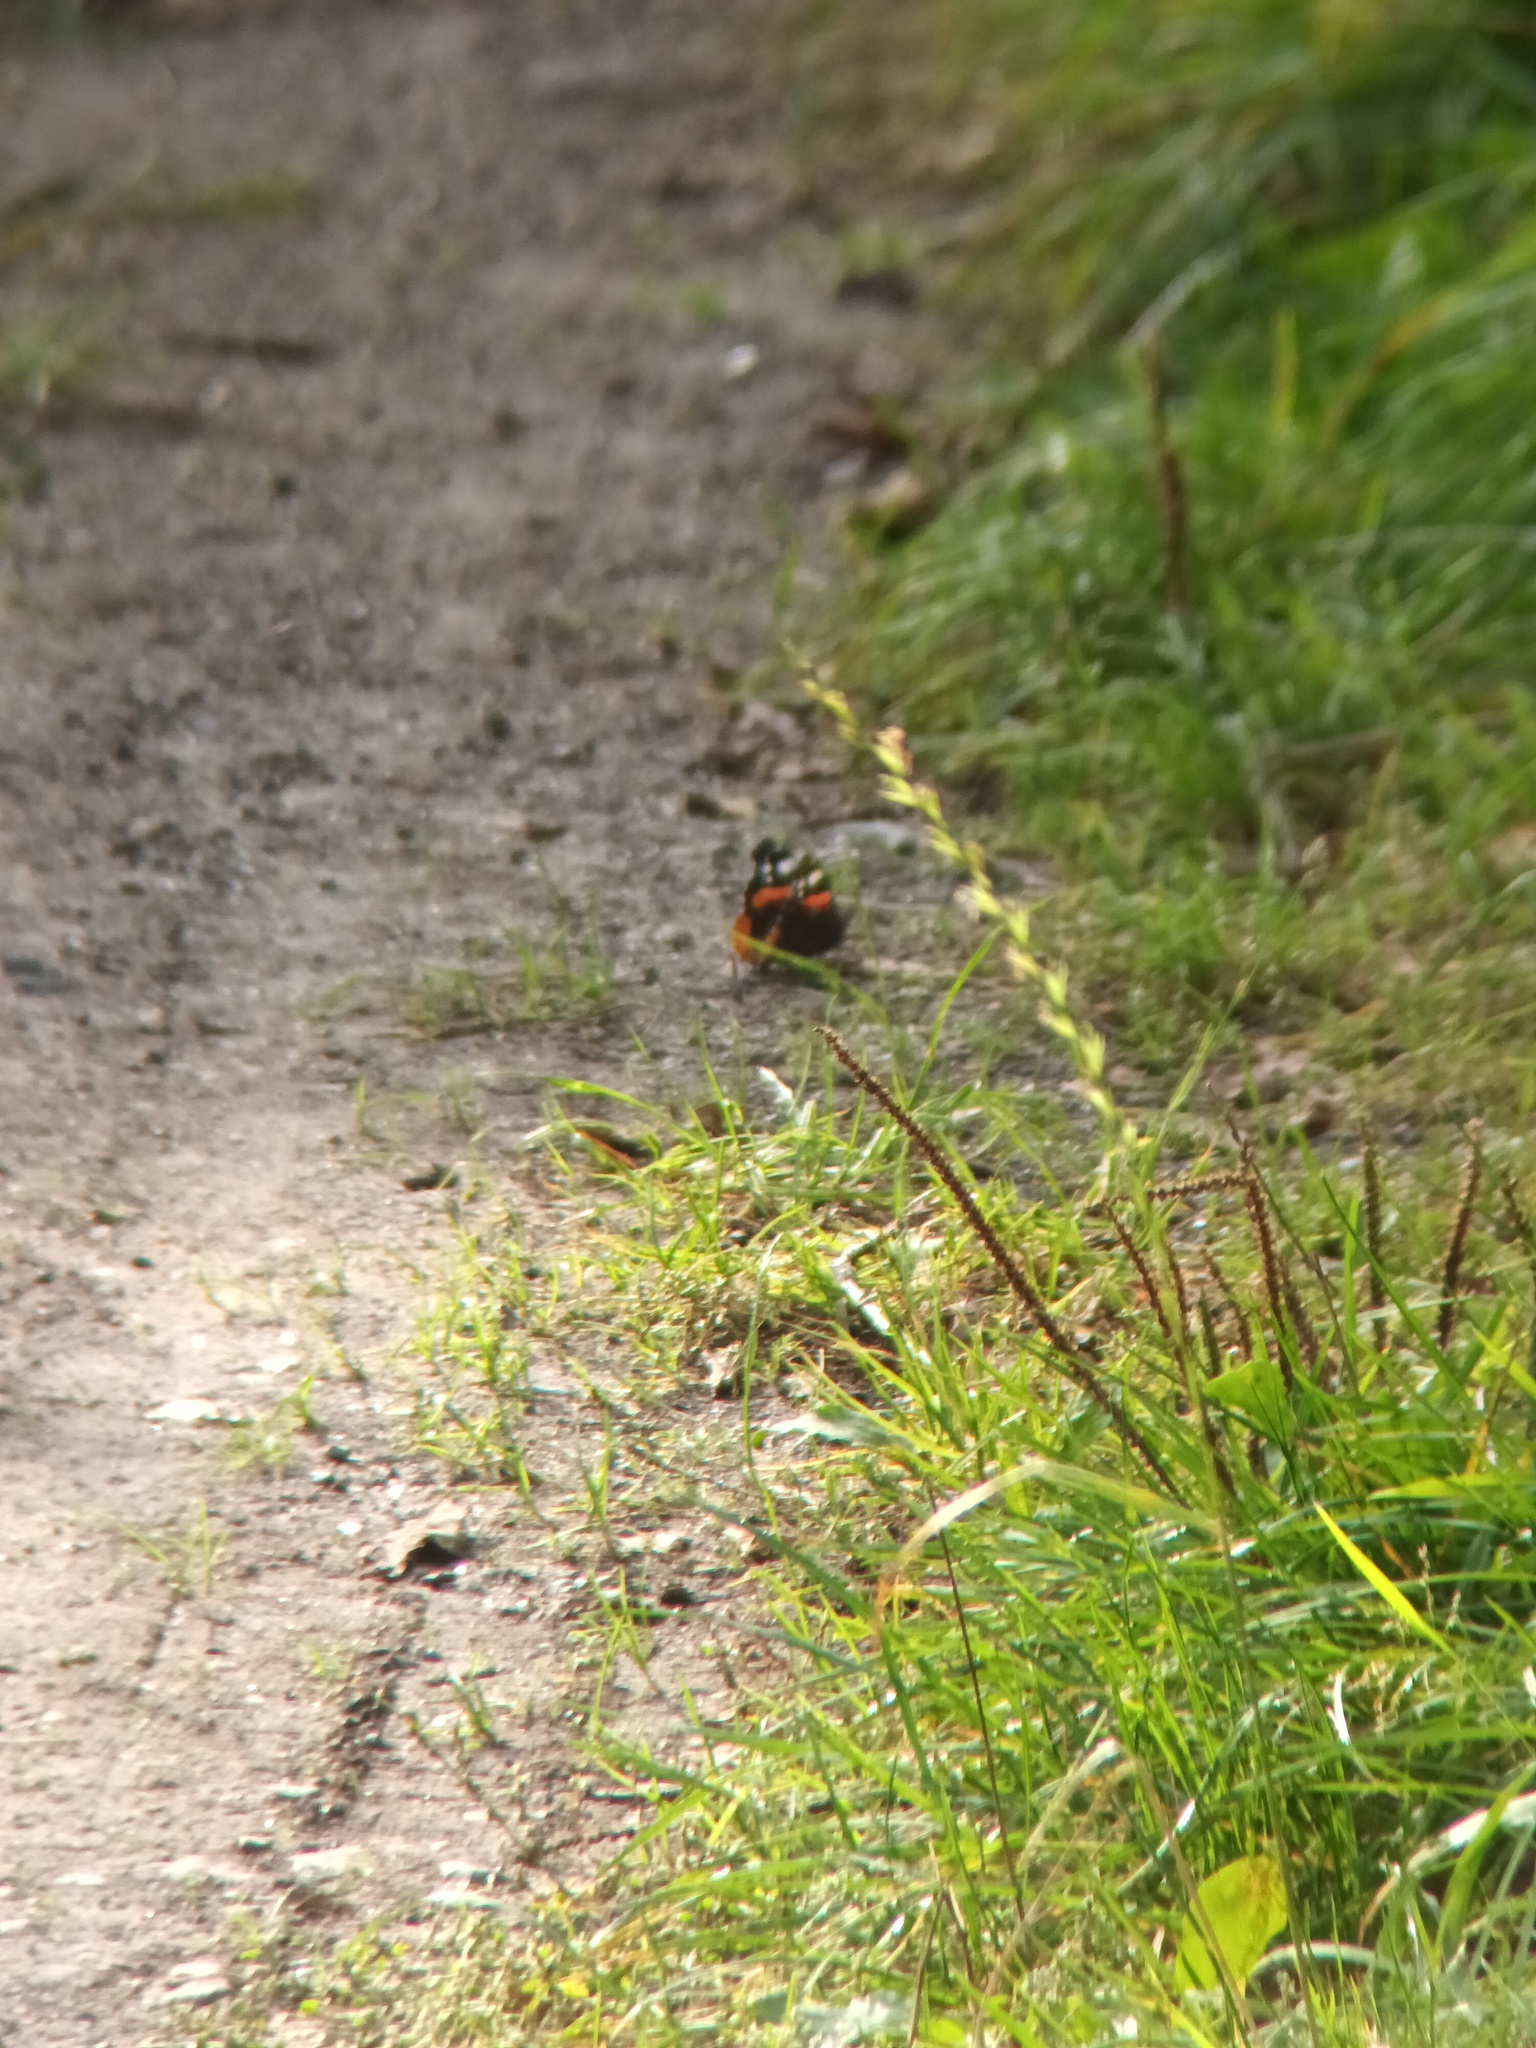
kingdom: Animalia
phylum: Arthropoda
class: Insecta
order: Lepidoptera
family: Nymphalidae
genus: Vanessa
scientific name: Vanessa atalanta
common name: Red admiral
